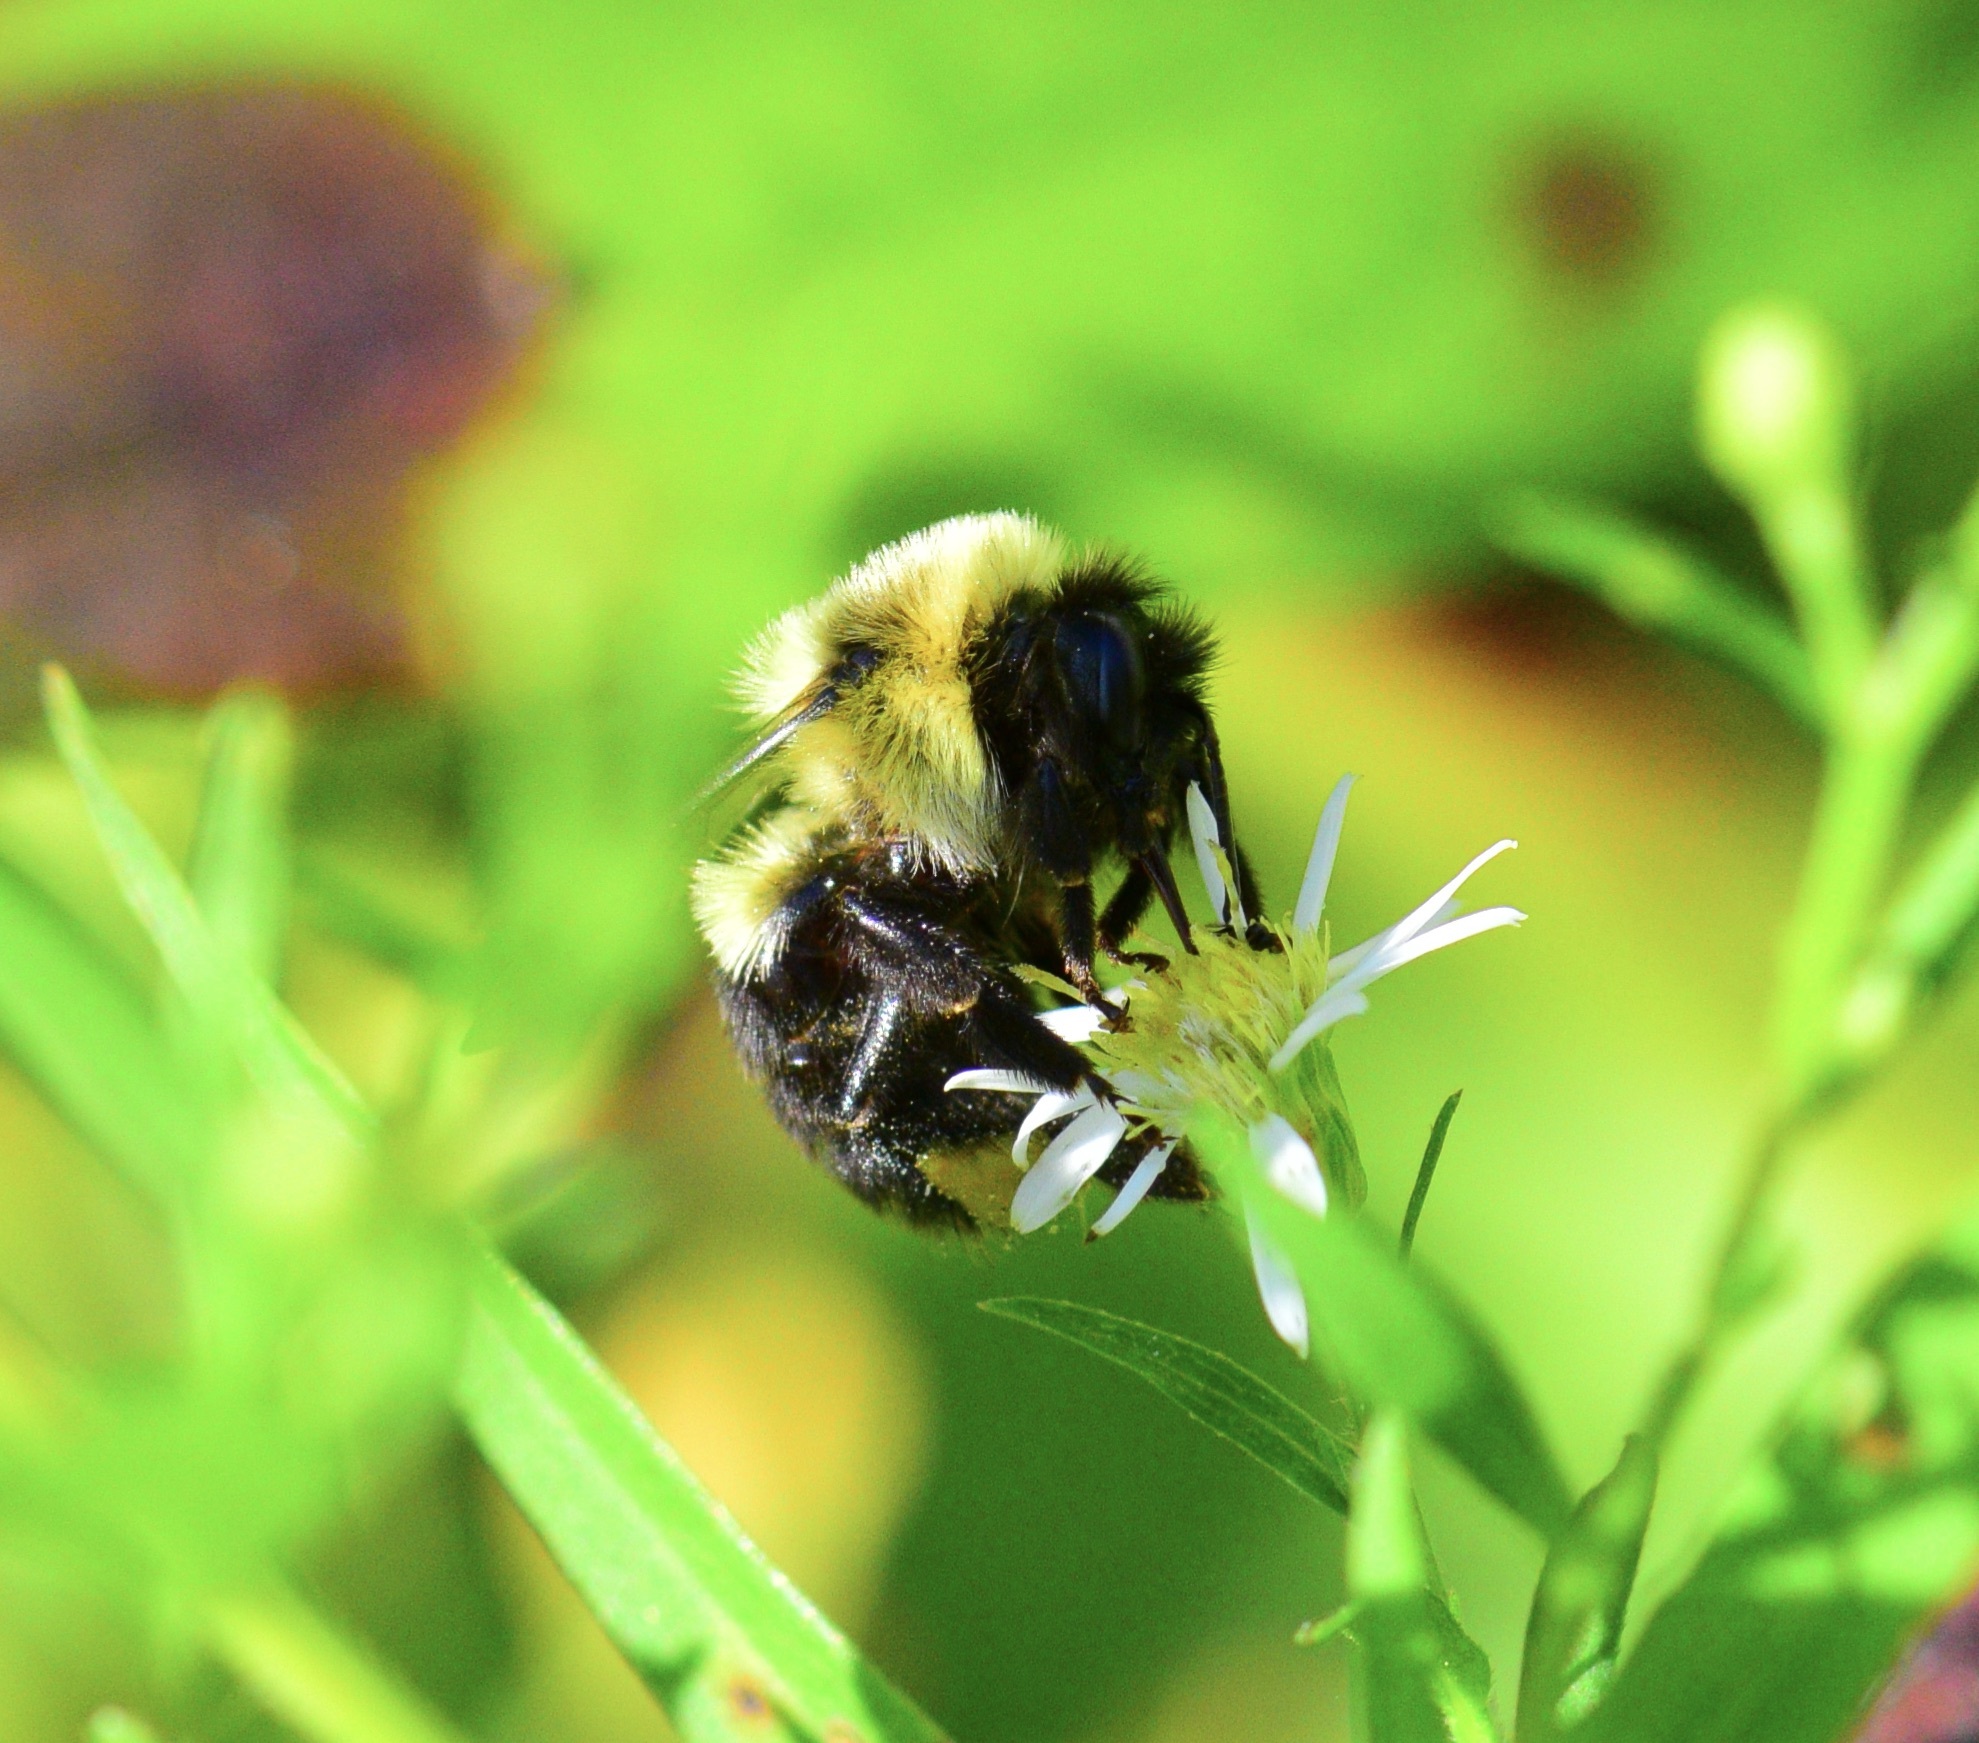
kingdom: Animalia
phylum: Arthropoda
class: Insecta
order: Hymenoptera
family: Apidae
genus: Bombus
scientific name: Bombus impatiens
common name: Common eastern bumble bee
